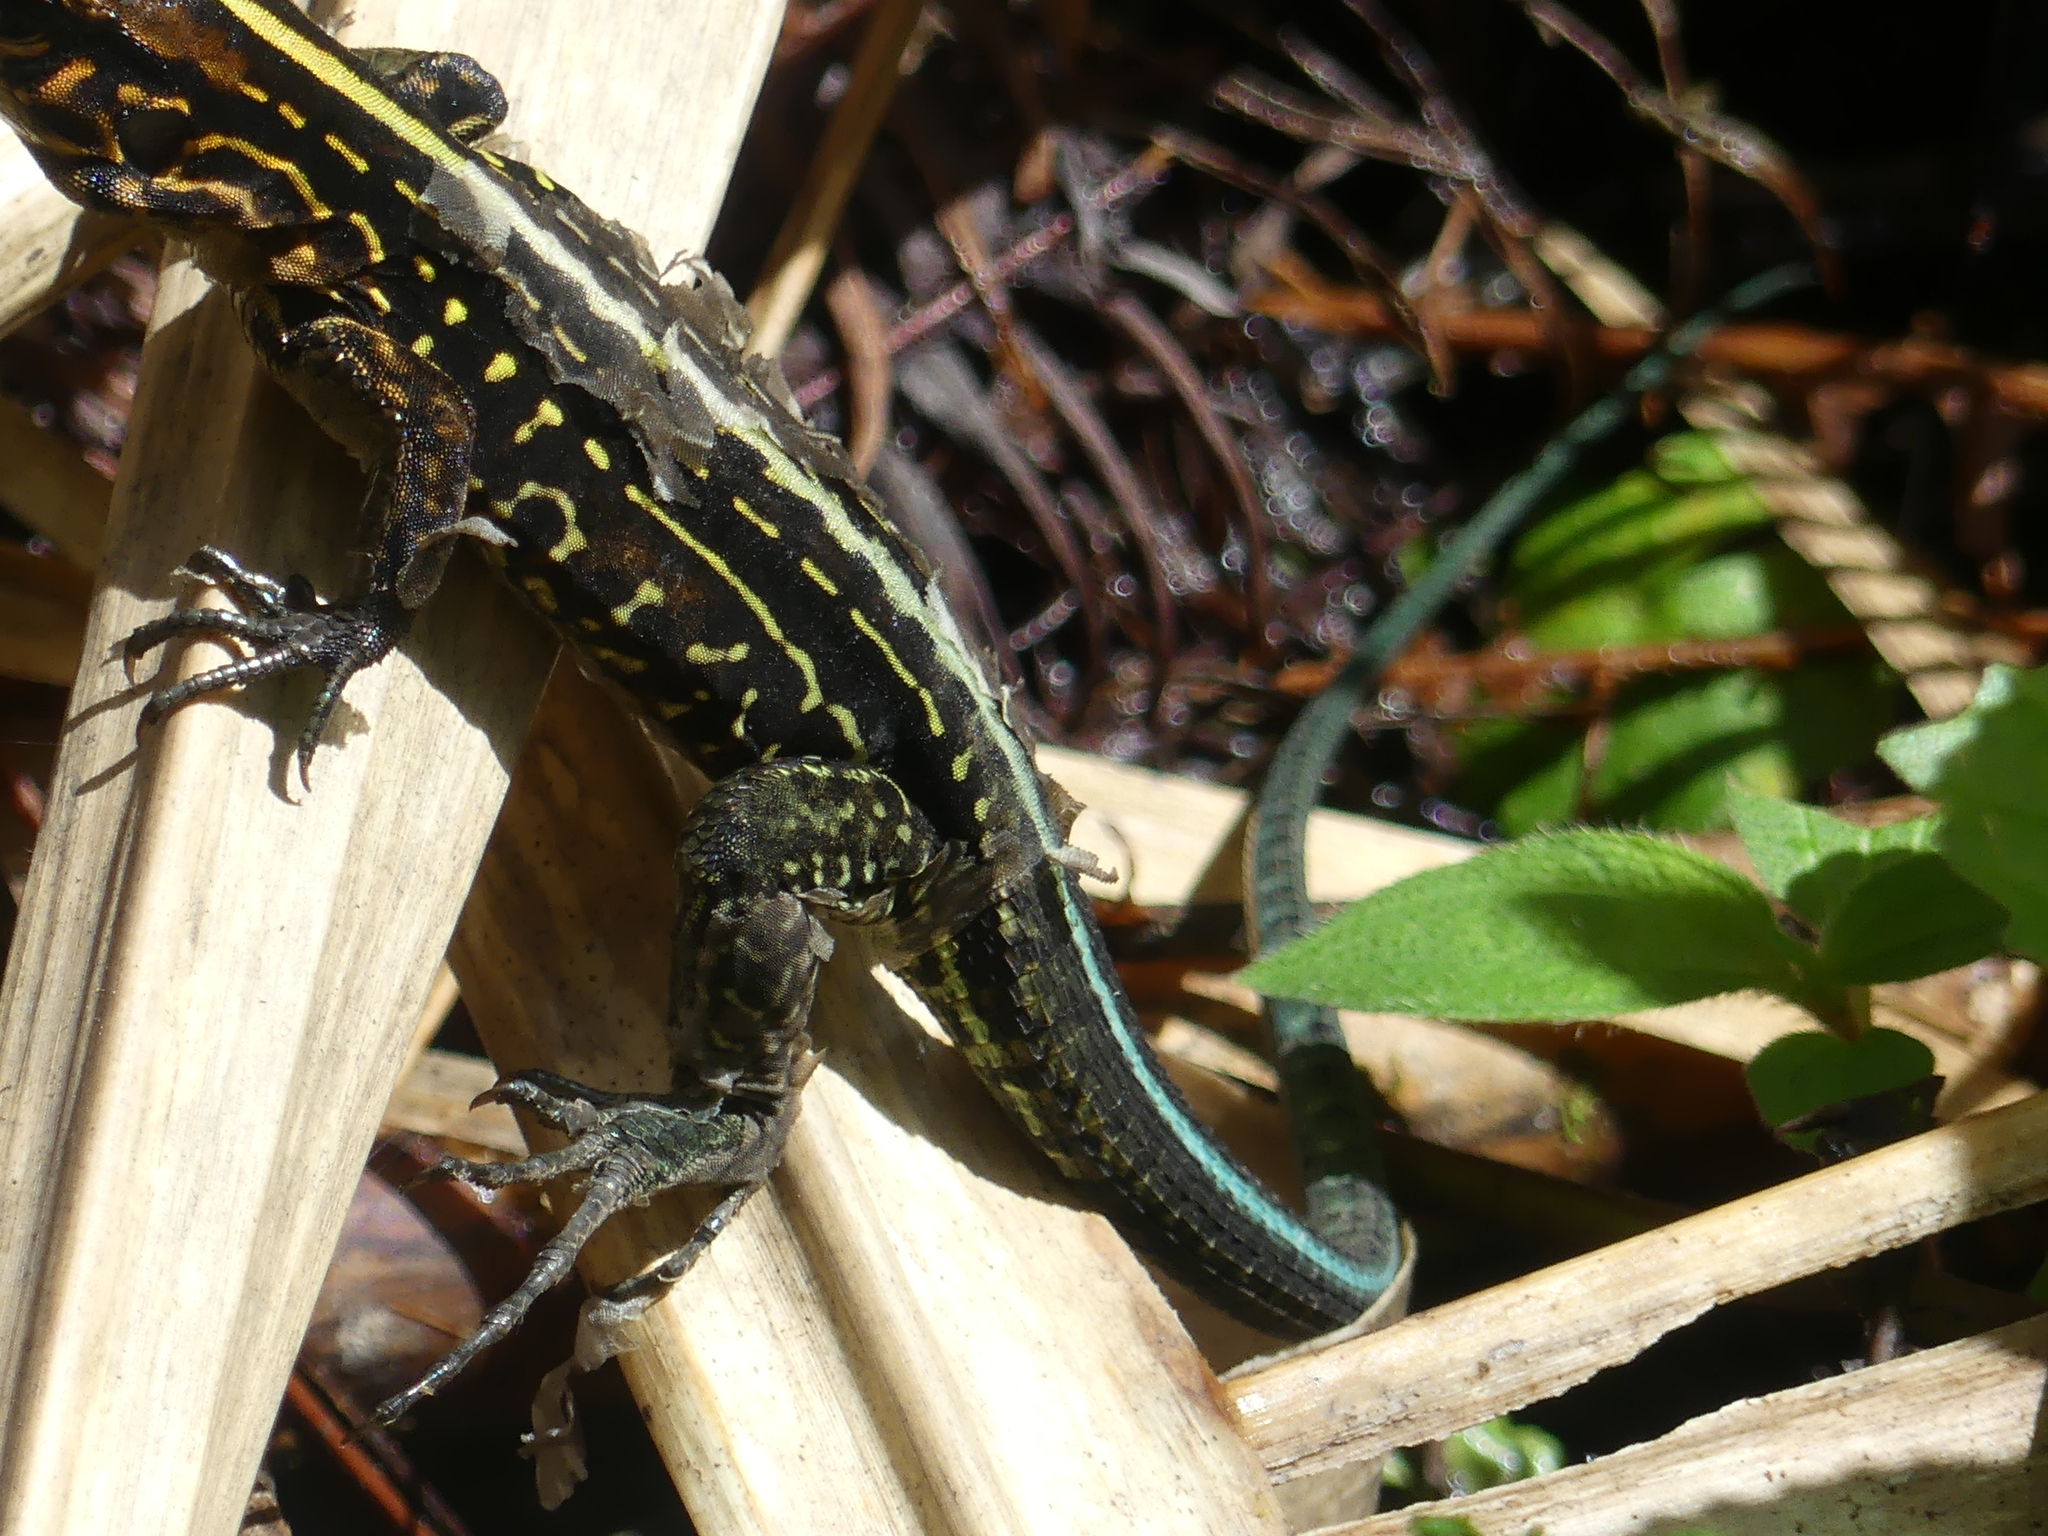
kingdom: Animalia
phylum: Chordata
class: Squamata
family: Teiidae
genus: Holcosus
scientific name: Holcosus festivus
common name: Middle american ameiva
